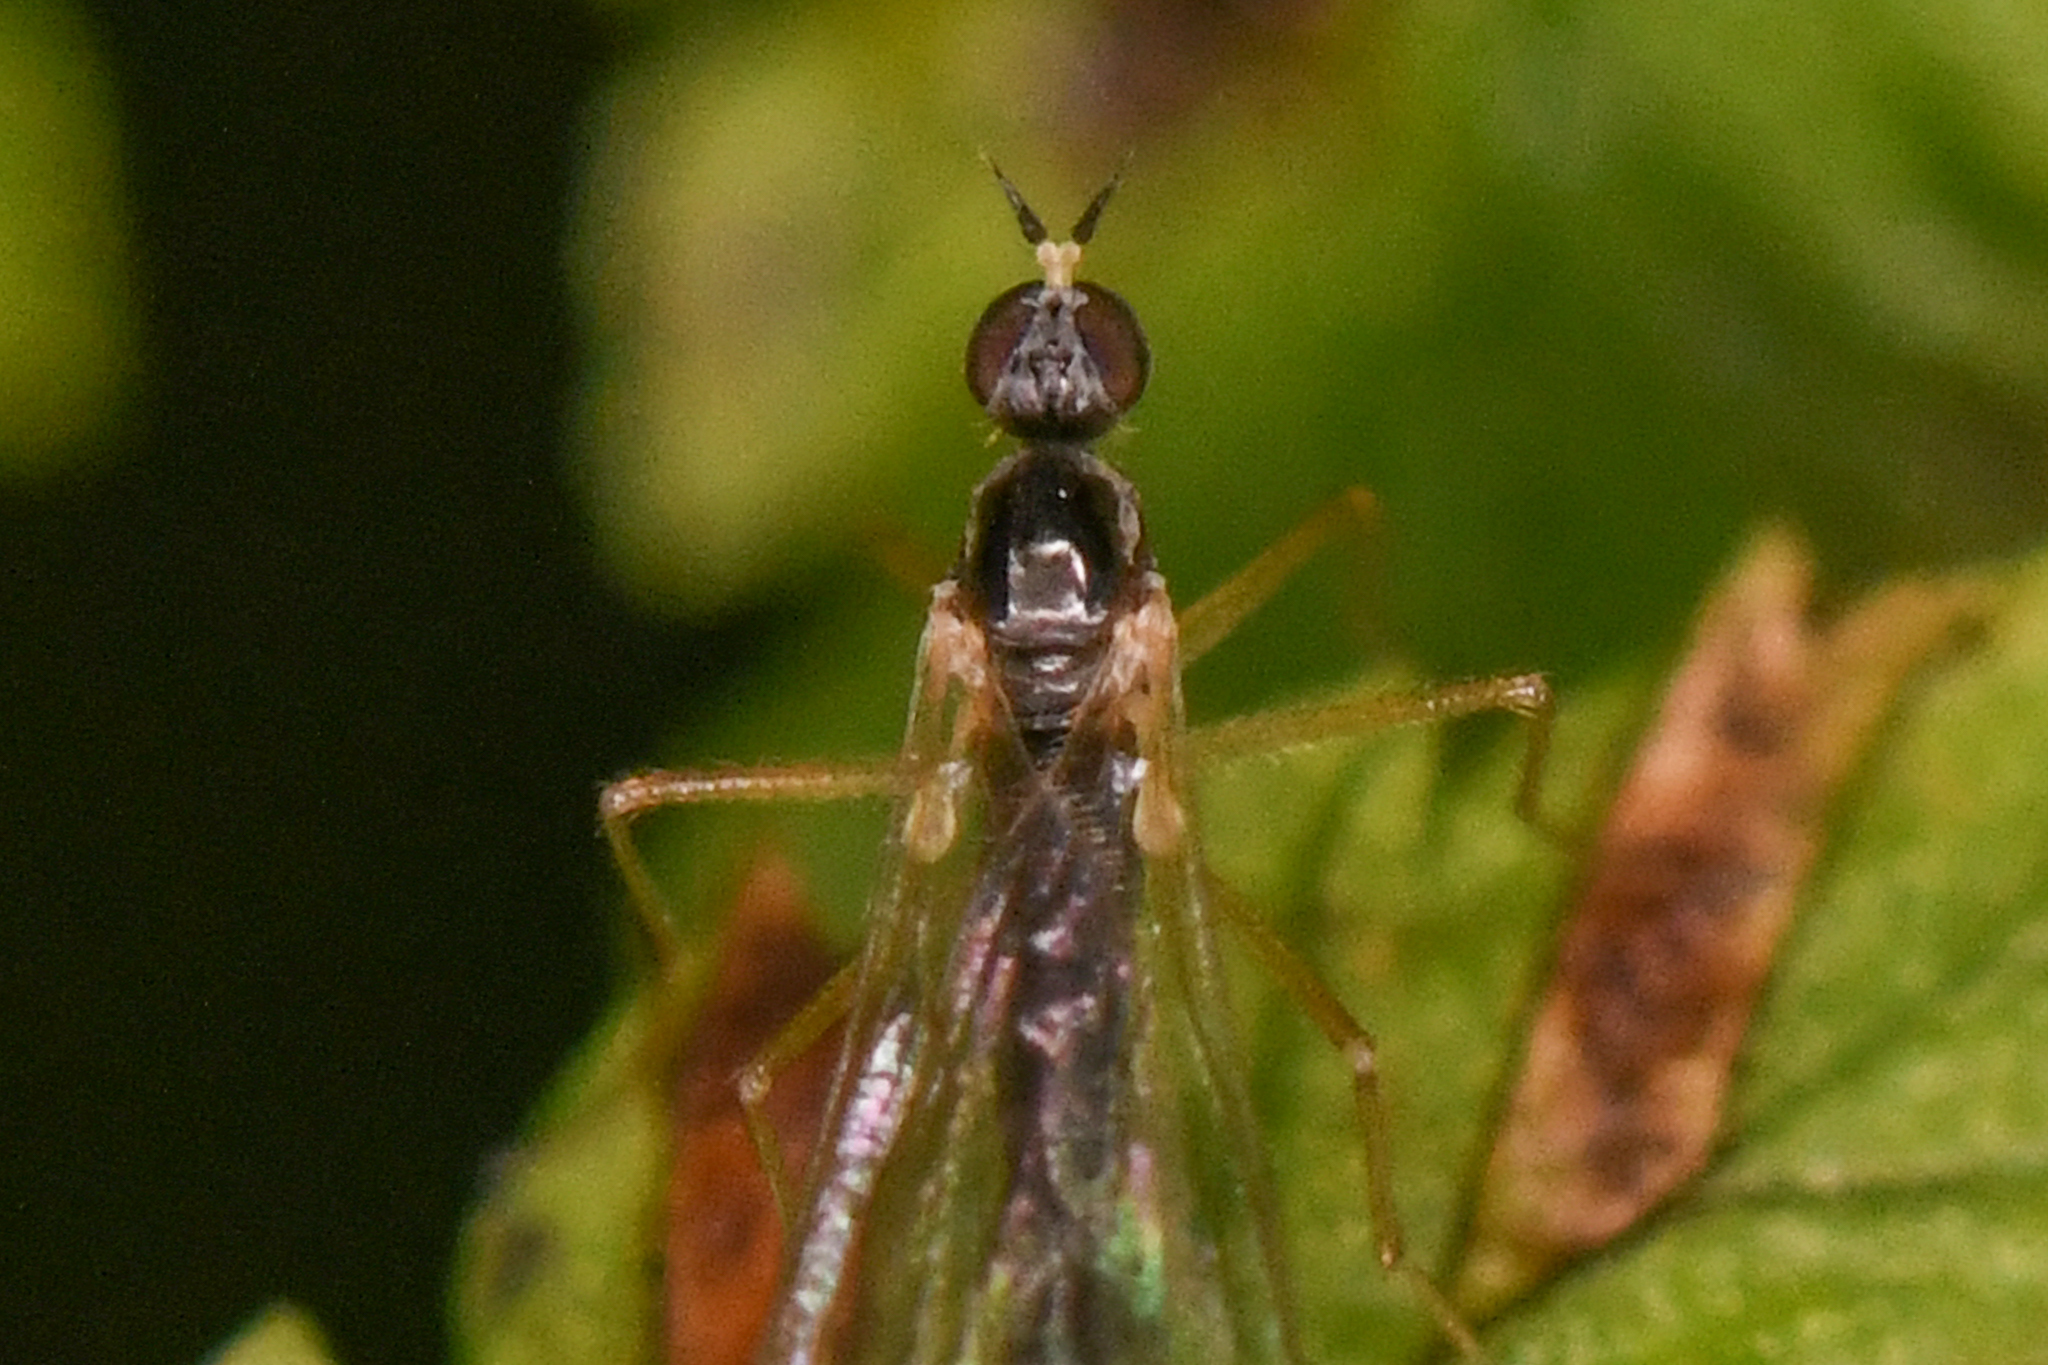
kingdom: Animalia
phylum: Arthropoda
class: Insecta
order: Diptera
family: Brachystomatidae
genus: Boreodromia
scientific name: Boreodromia bicolor
